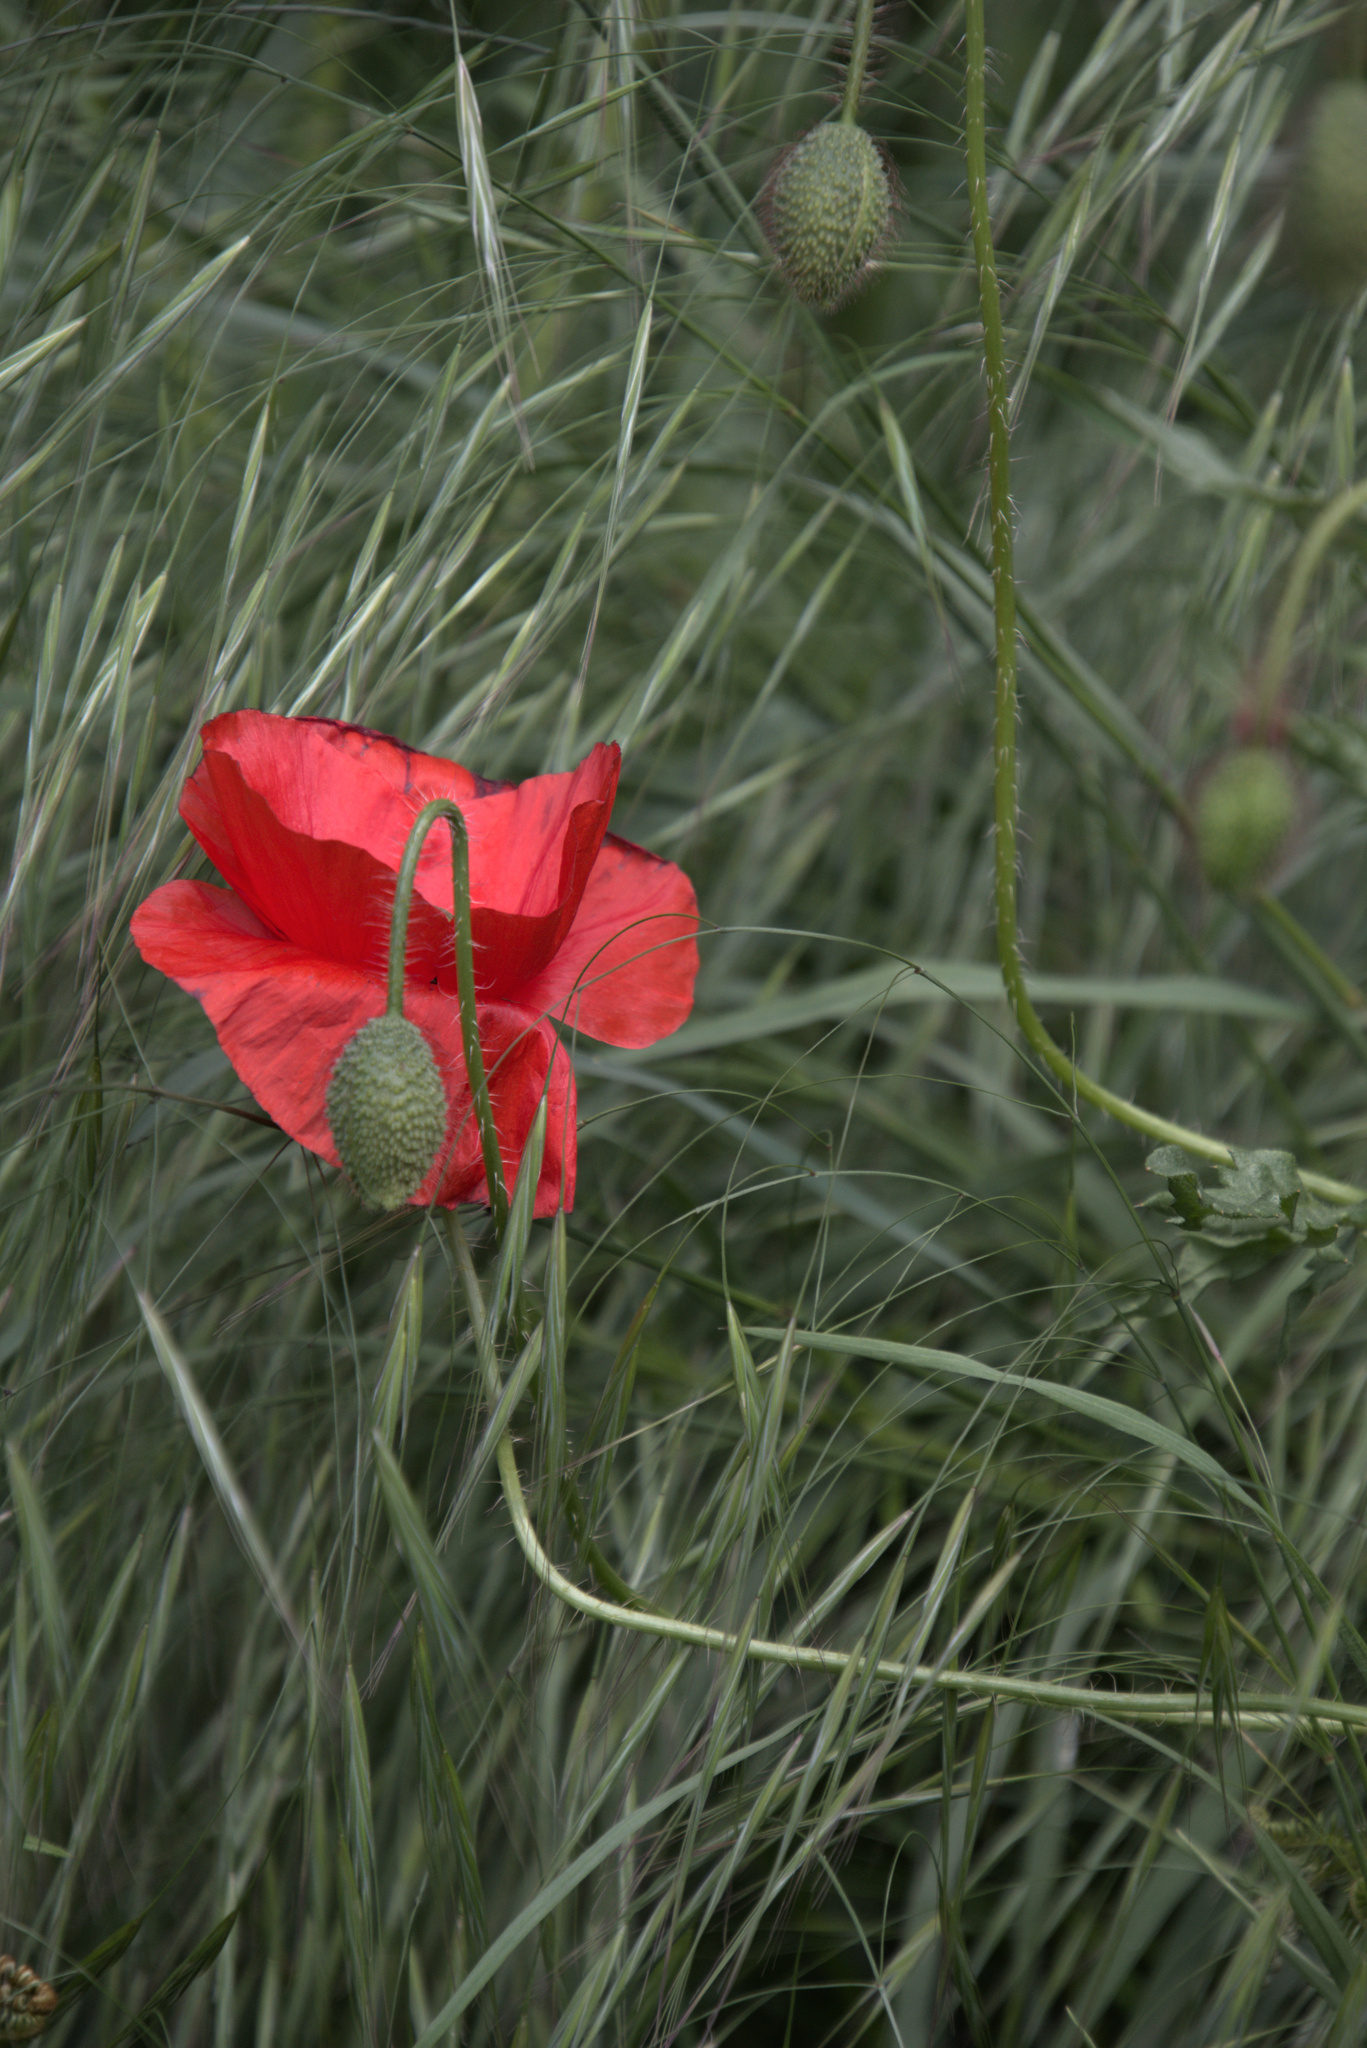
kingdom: Plantae
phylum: Tracheophyta
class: Magnoliopsida
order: Ranunculales
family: Papaveraceae
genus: Papaver
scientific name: Papaver rhoeas
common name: Corn poppy
